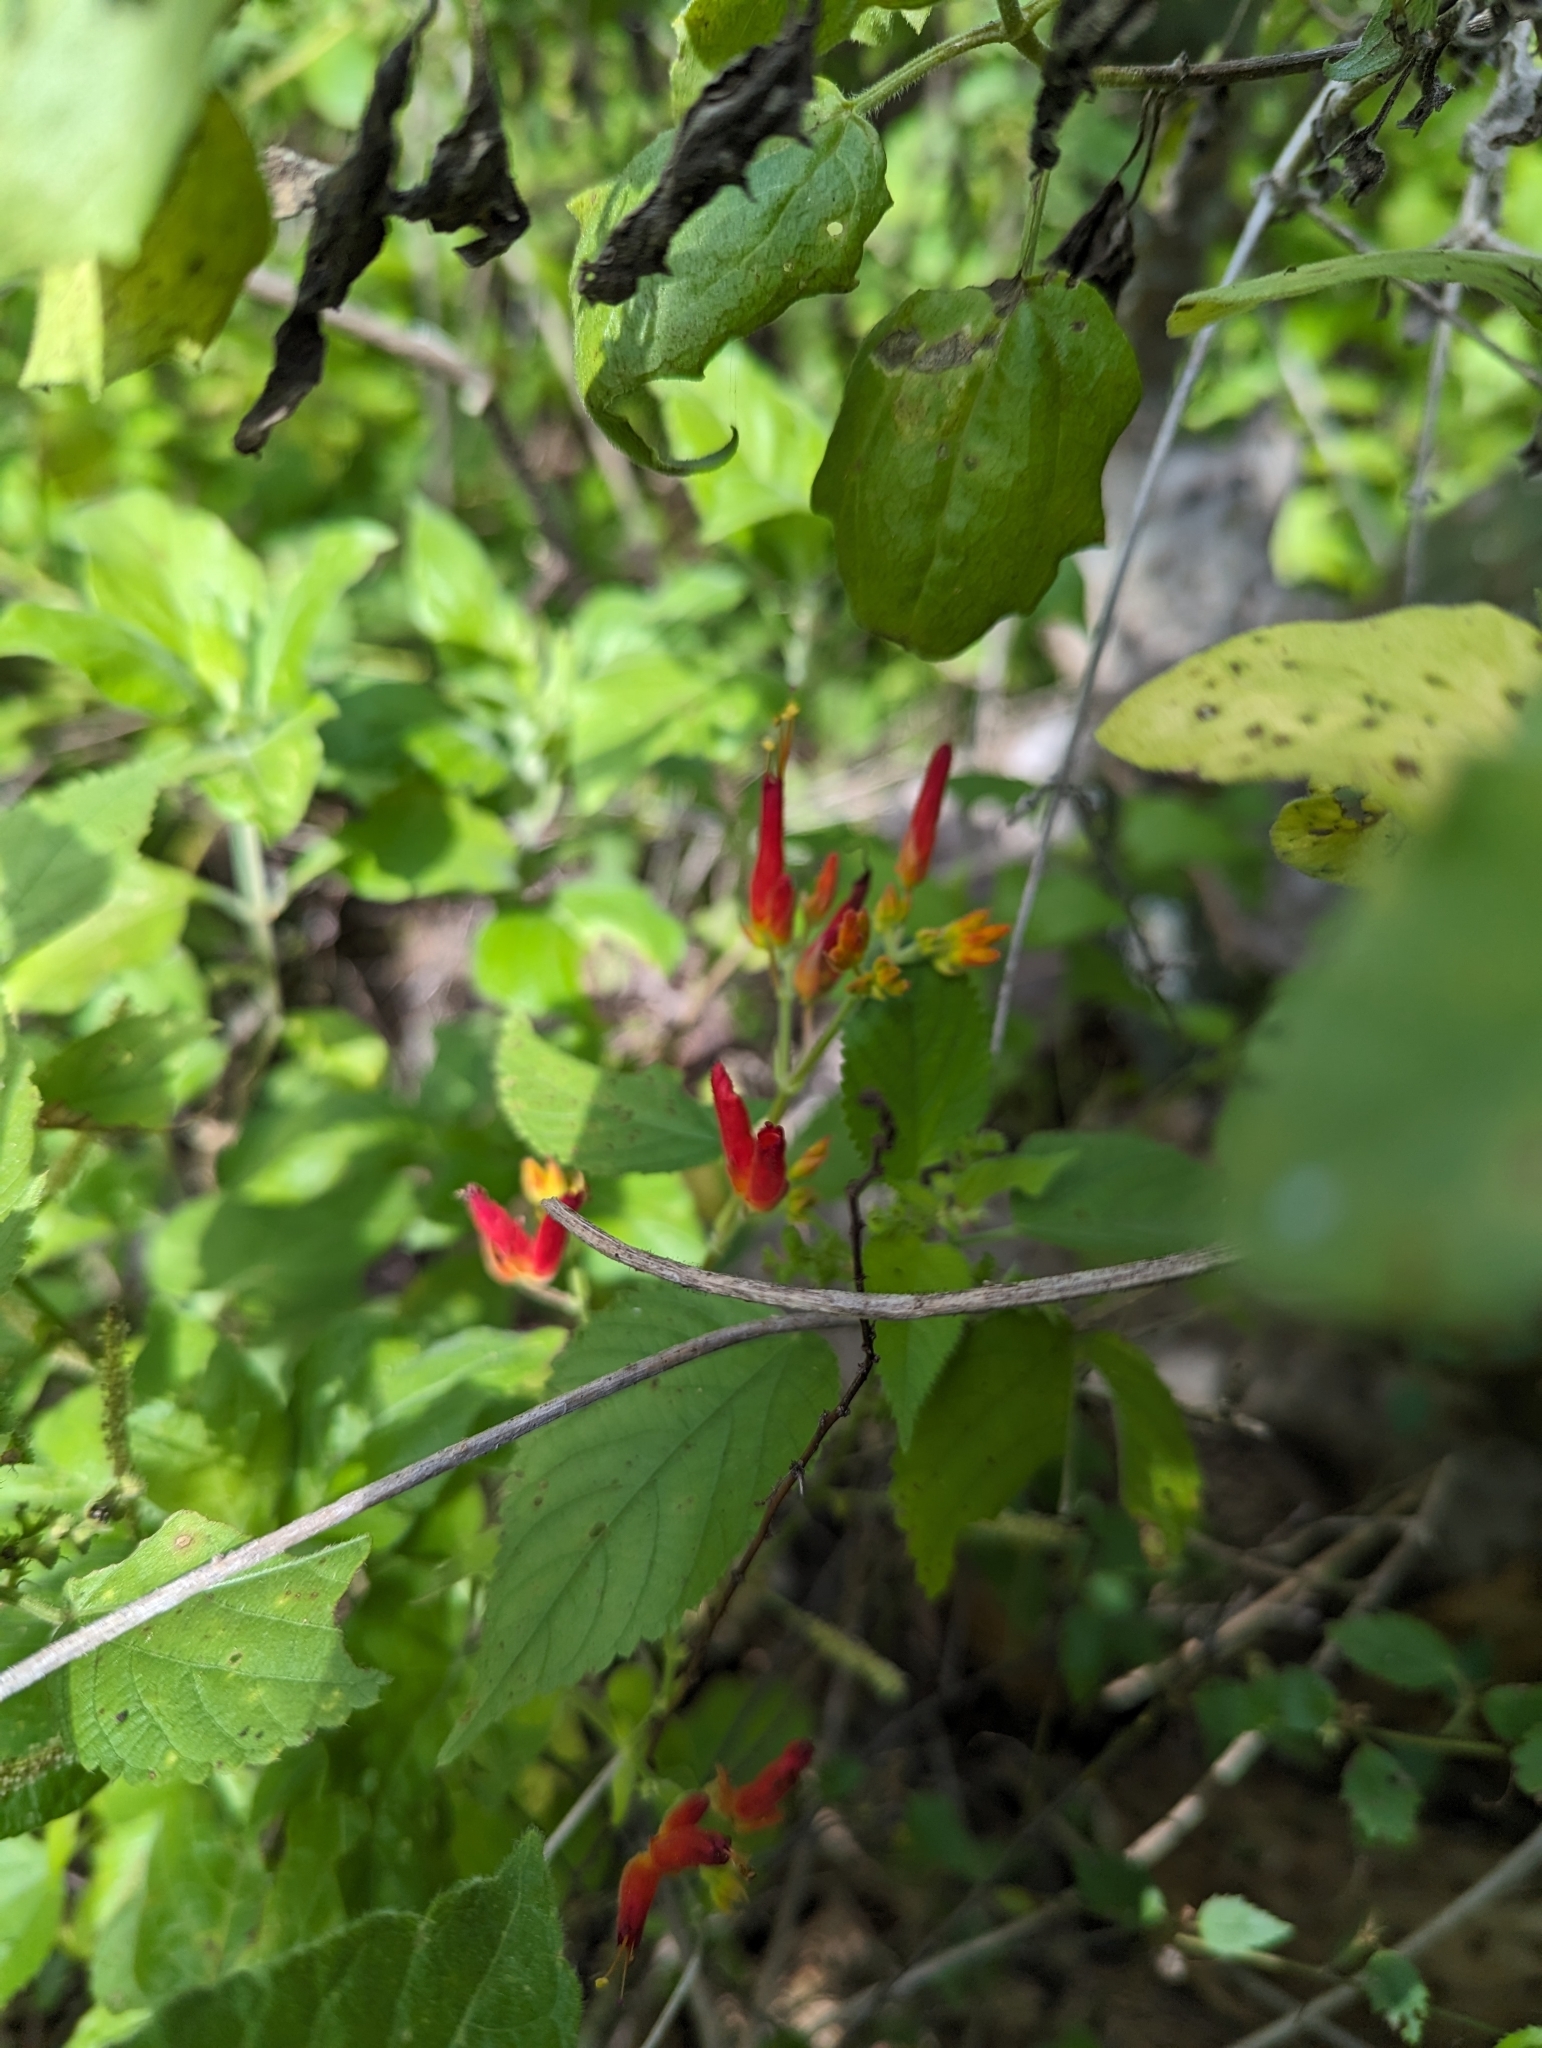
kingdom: Plantae
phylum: Tracheophyta
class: Magnoliopsida
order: Caryophyllales
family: Nyctaginaceae
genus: Mirabilis
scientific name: Mirabilis triflora
